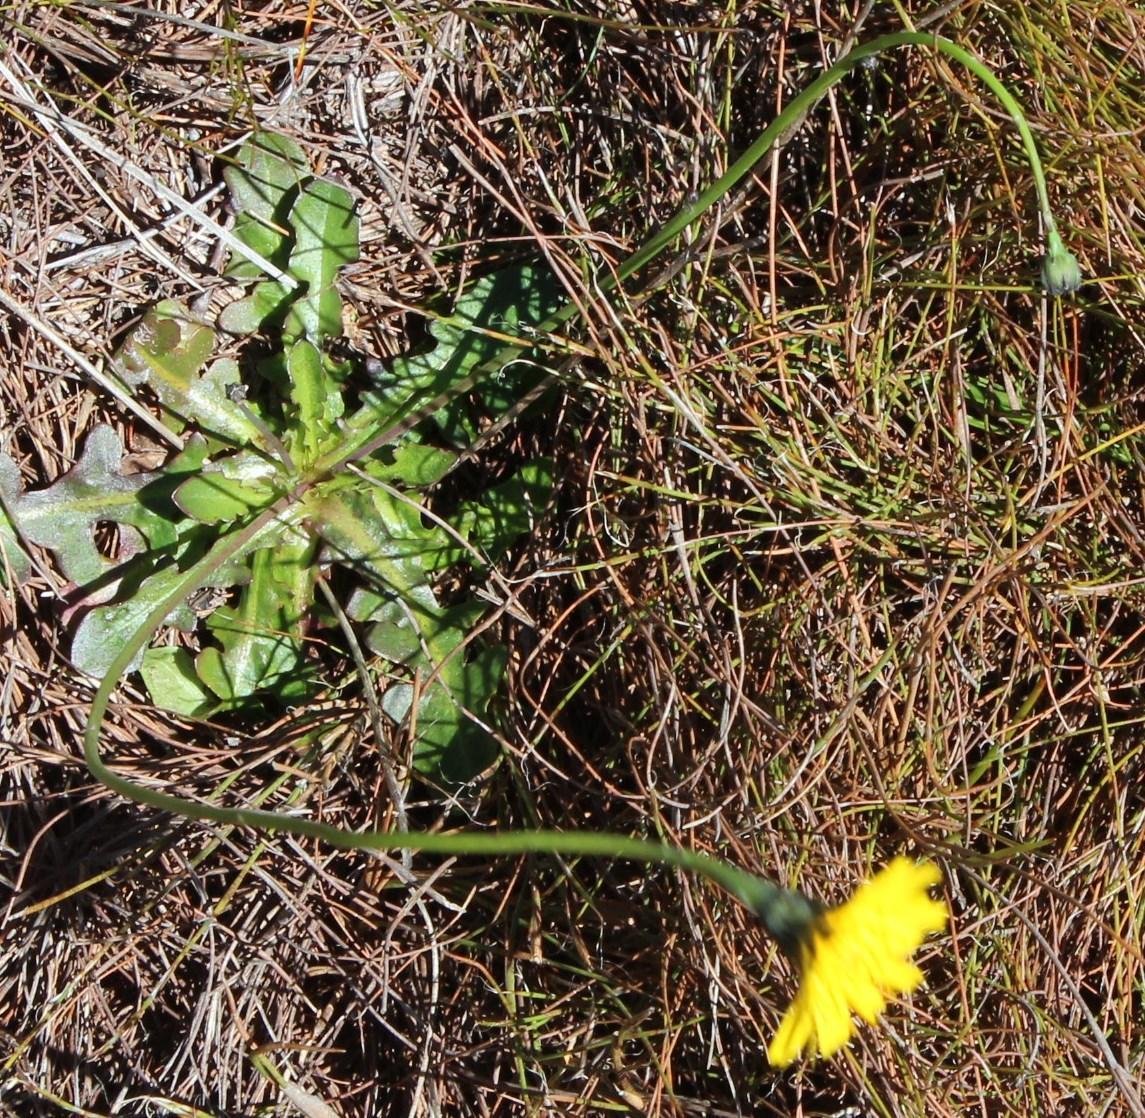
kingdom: Plantae
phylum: Tracheophyta
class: Magnoliopsida
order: Asterales
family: Asteraceae
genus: Hypochaeris
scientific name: Hypochaeris radicata
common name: Flatweed
